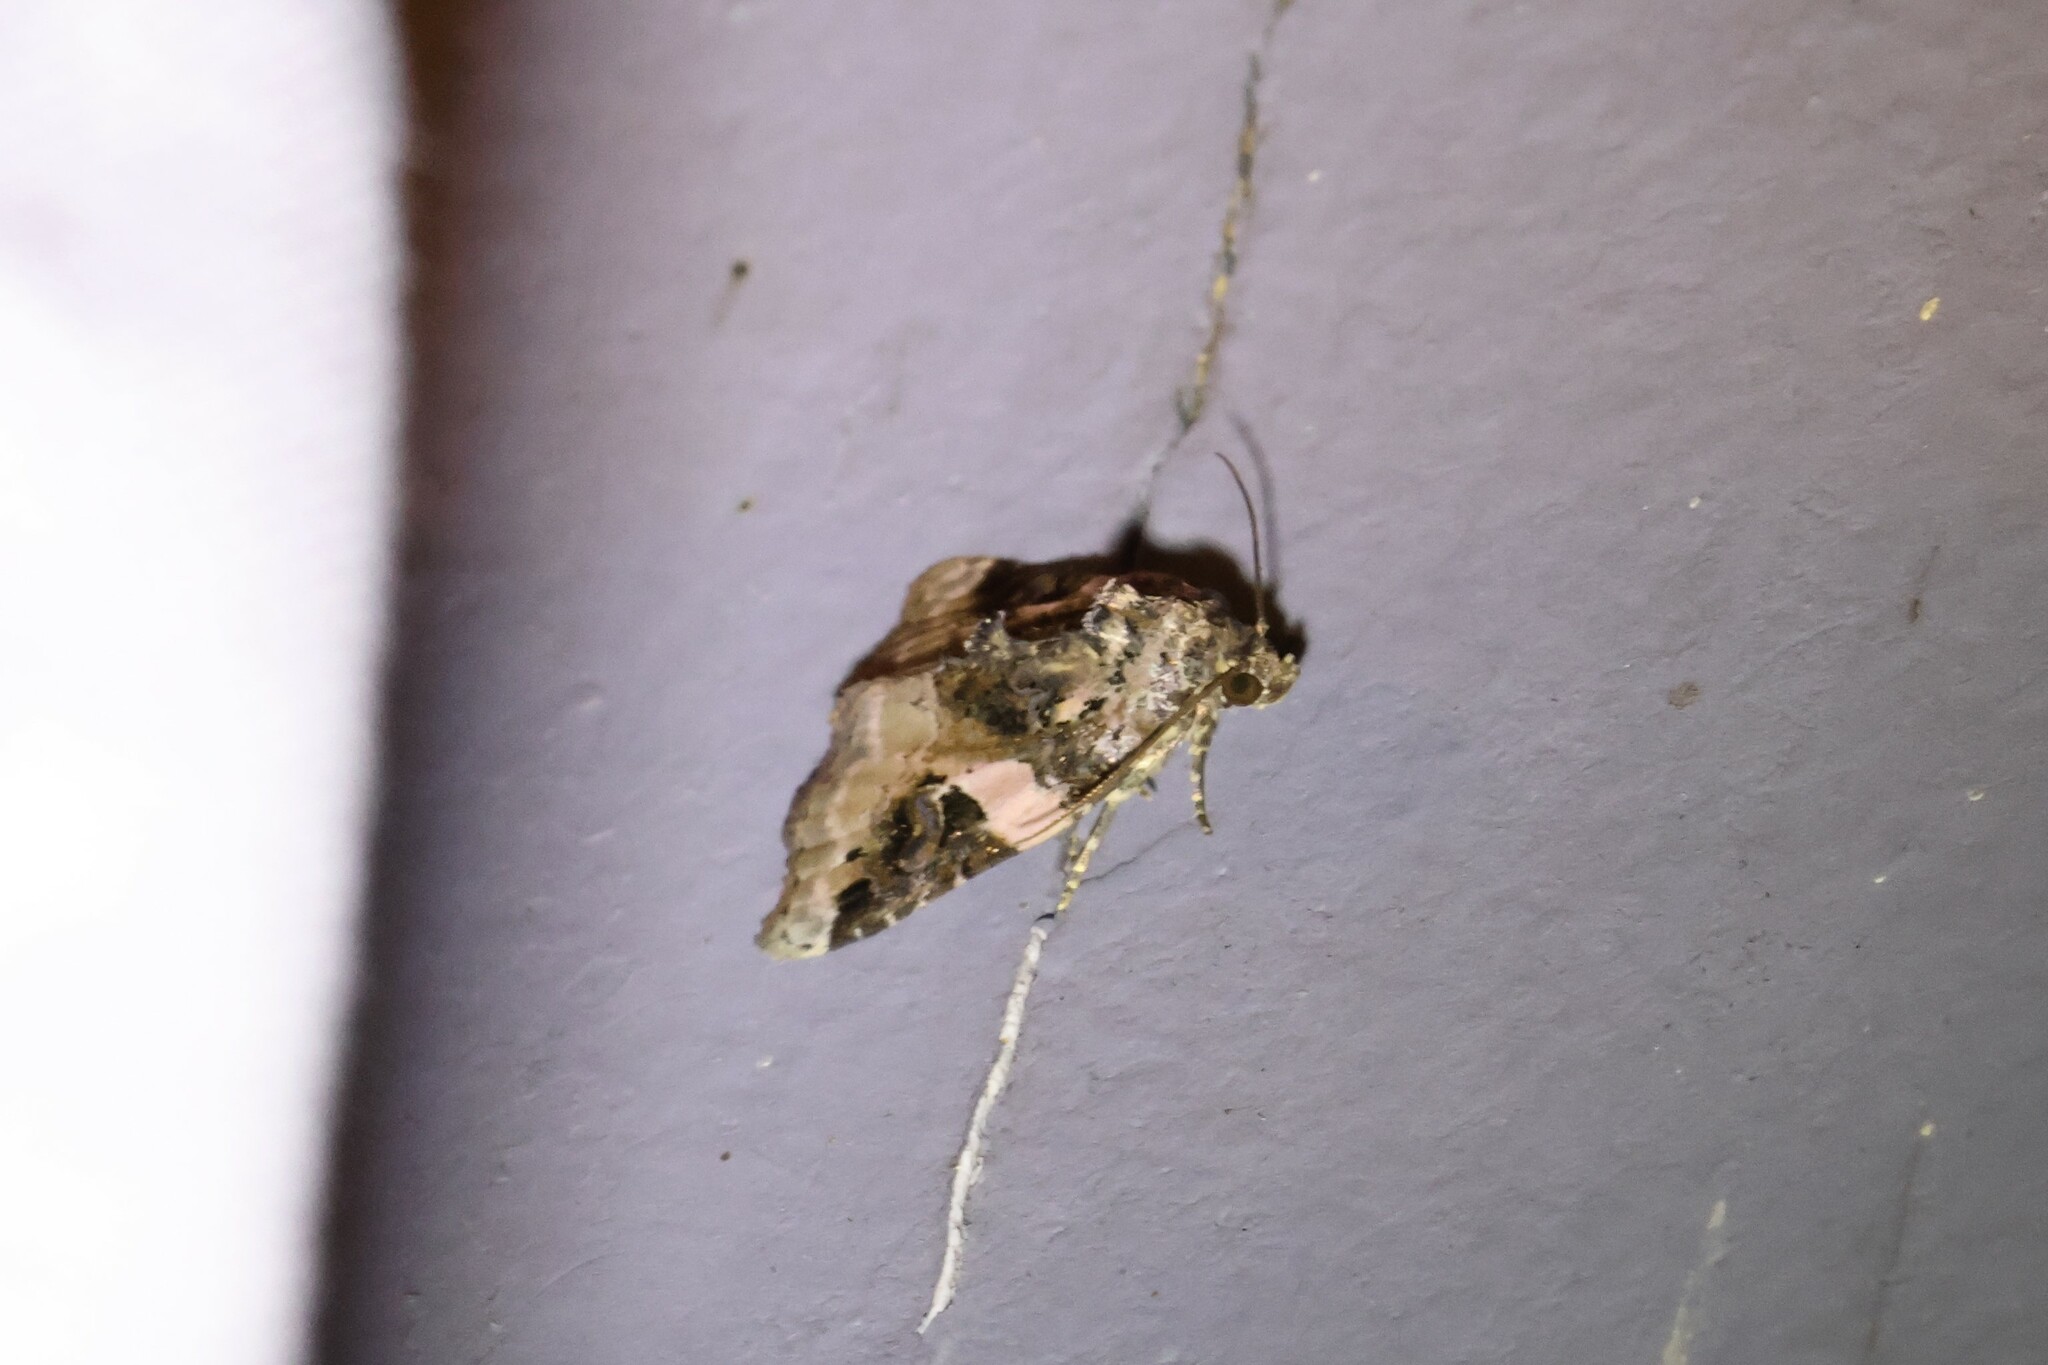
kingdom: Animalia
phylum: Arthropoda
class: Insecta
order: Lepidoptera
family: Noctuidae
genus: Pseudeustrotia
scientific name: Pseudeustrotia carneola
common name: Pink-barred lithacodia moth
